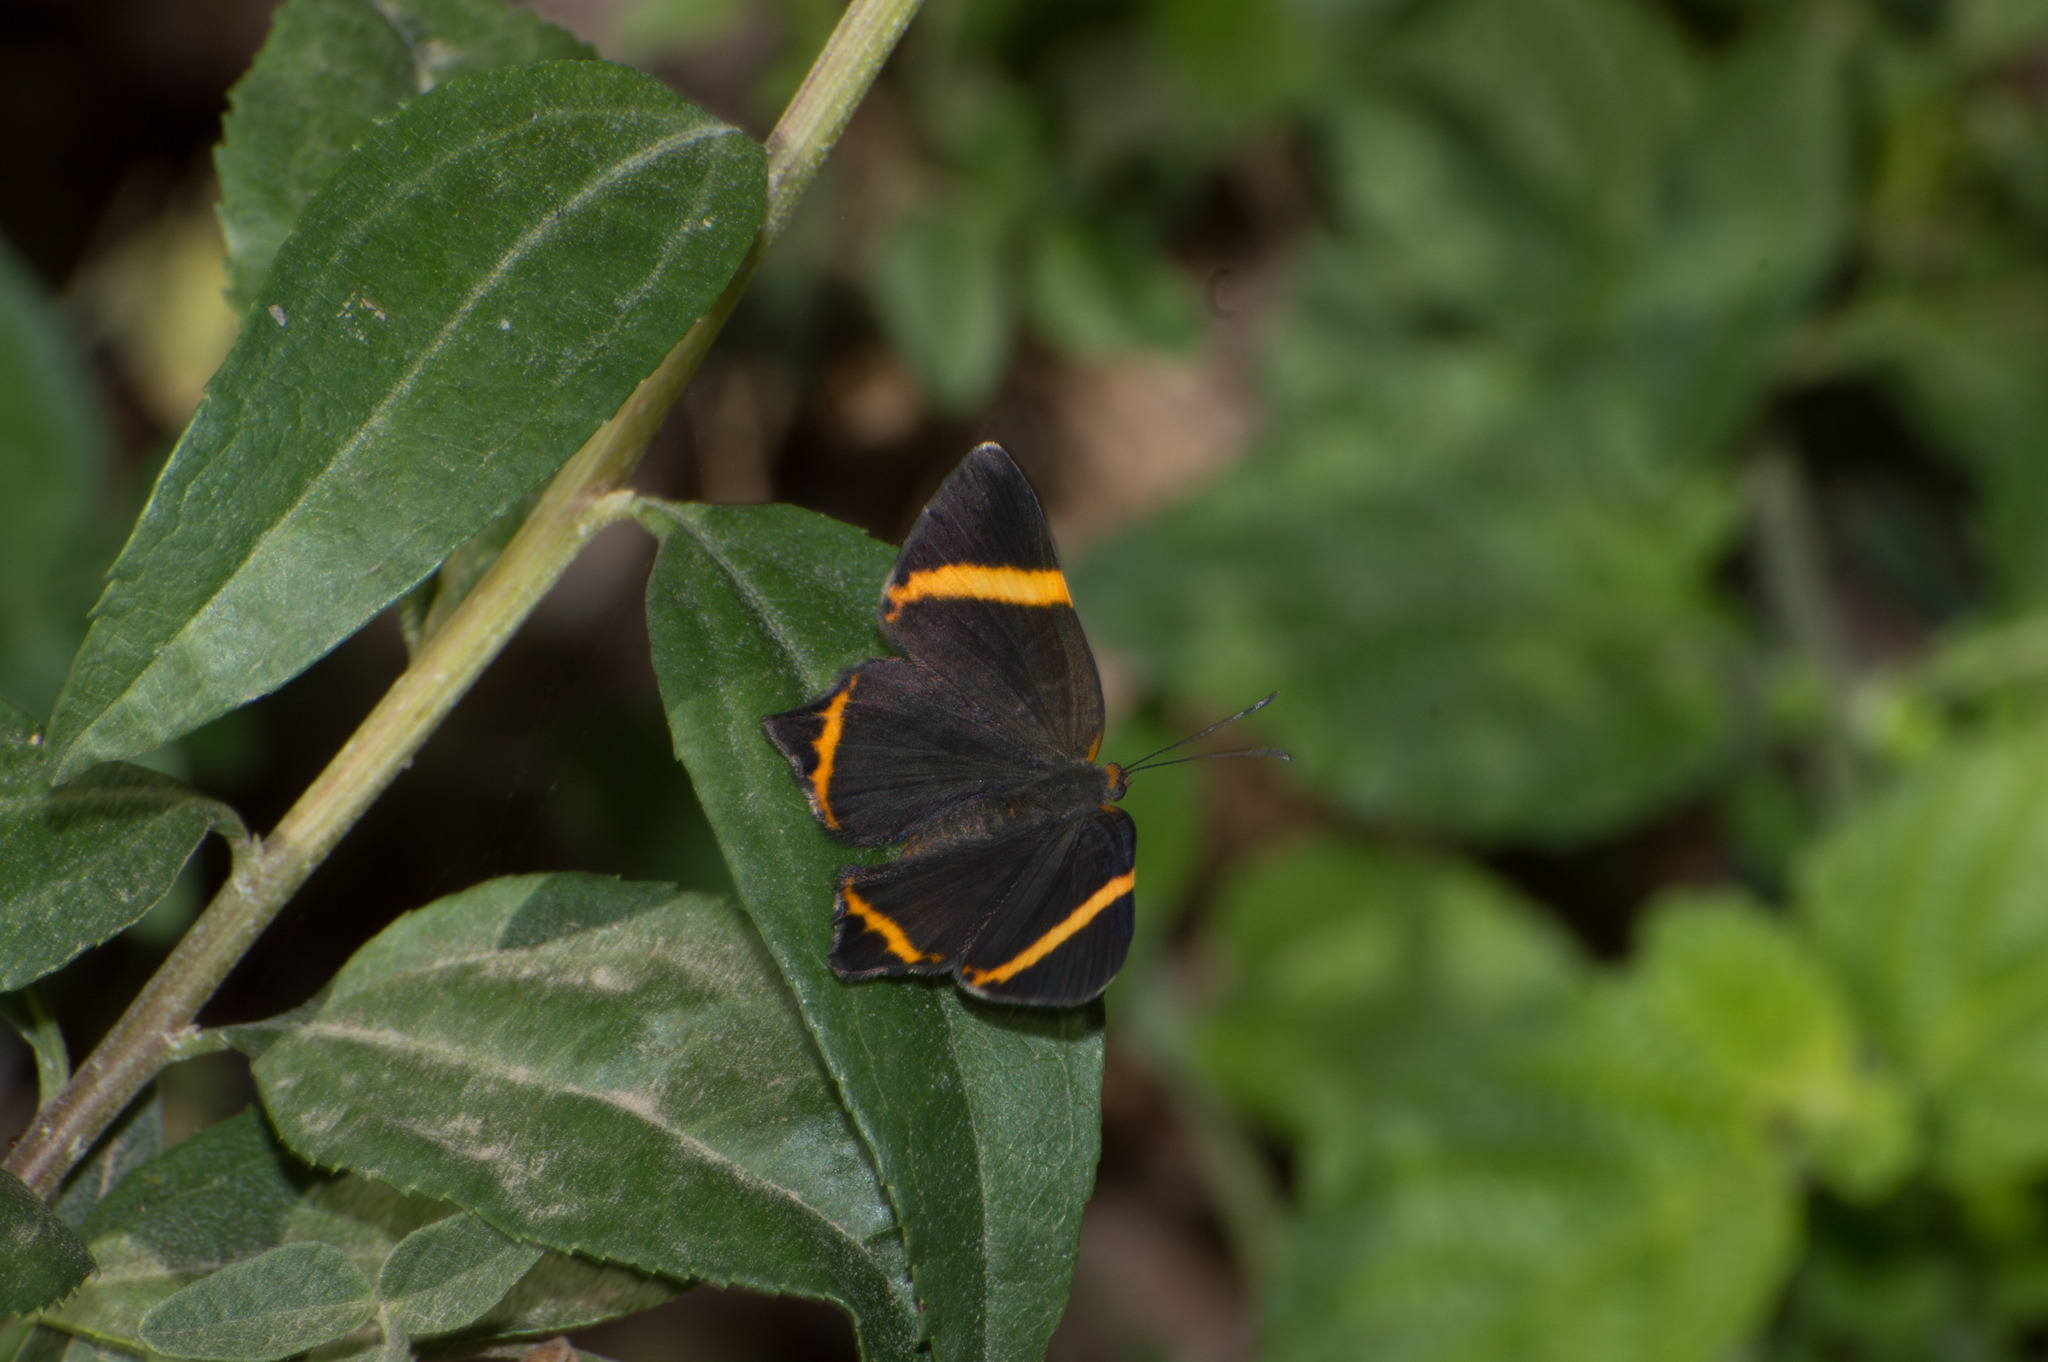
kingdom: Animalia
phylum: Arthropoda
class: Insecta
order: Lepidoptera
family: Riodinidae
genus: Riodina
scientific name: Riodina lysippoides
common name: Little dancer metalmark
